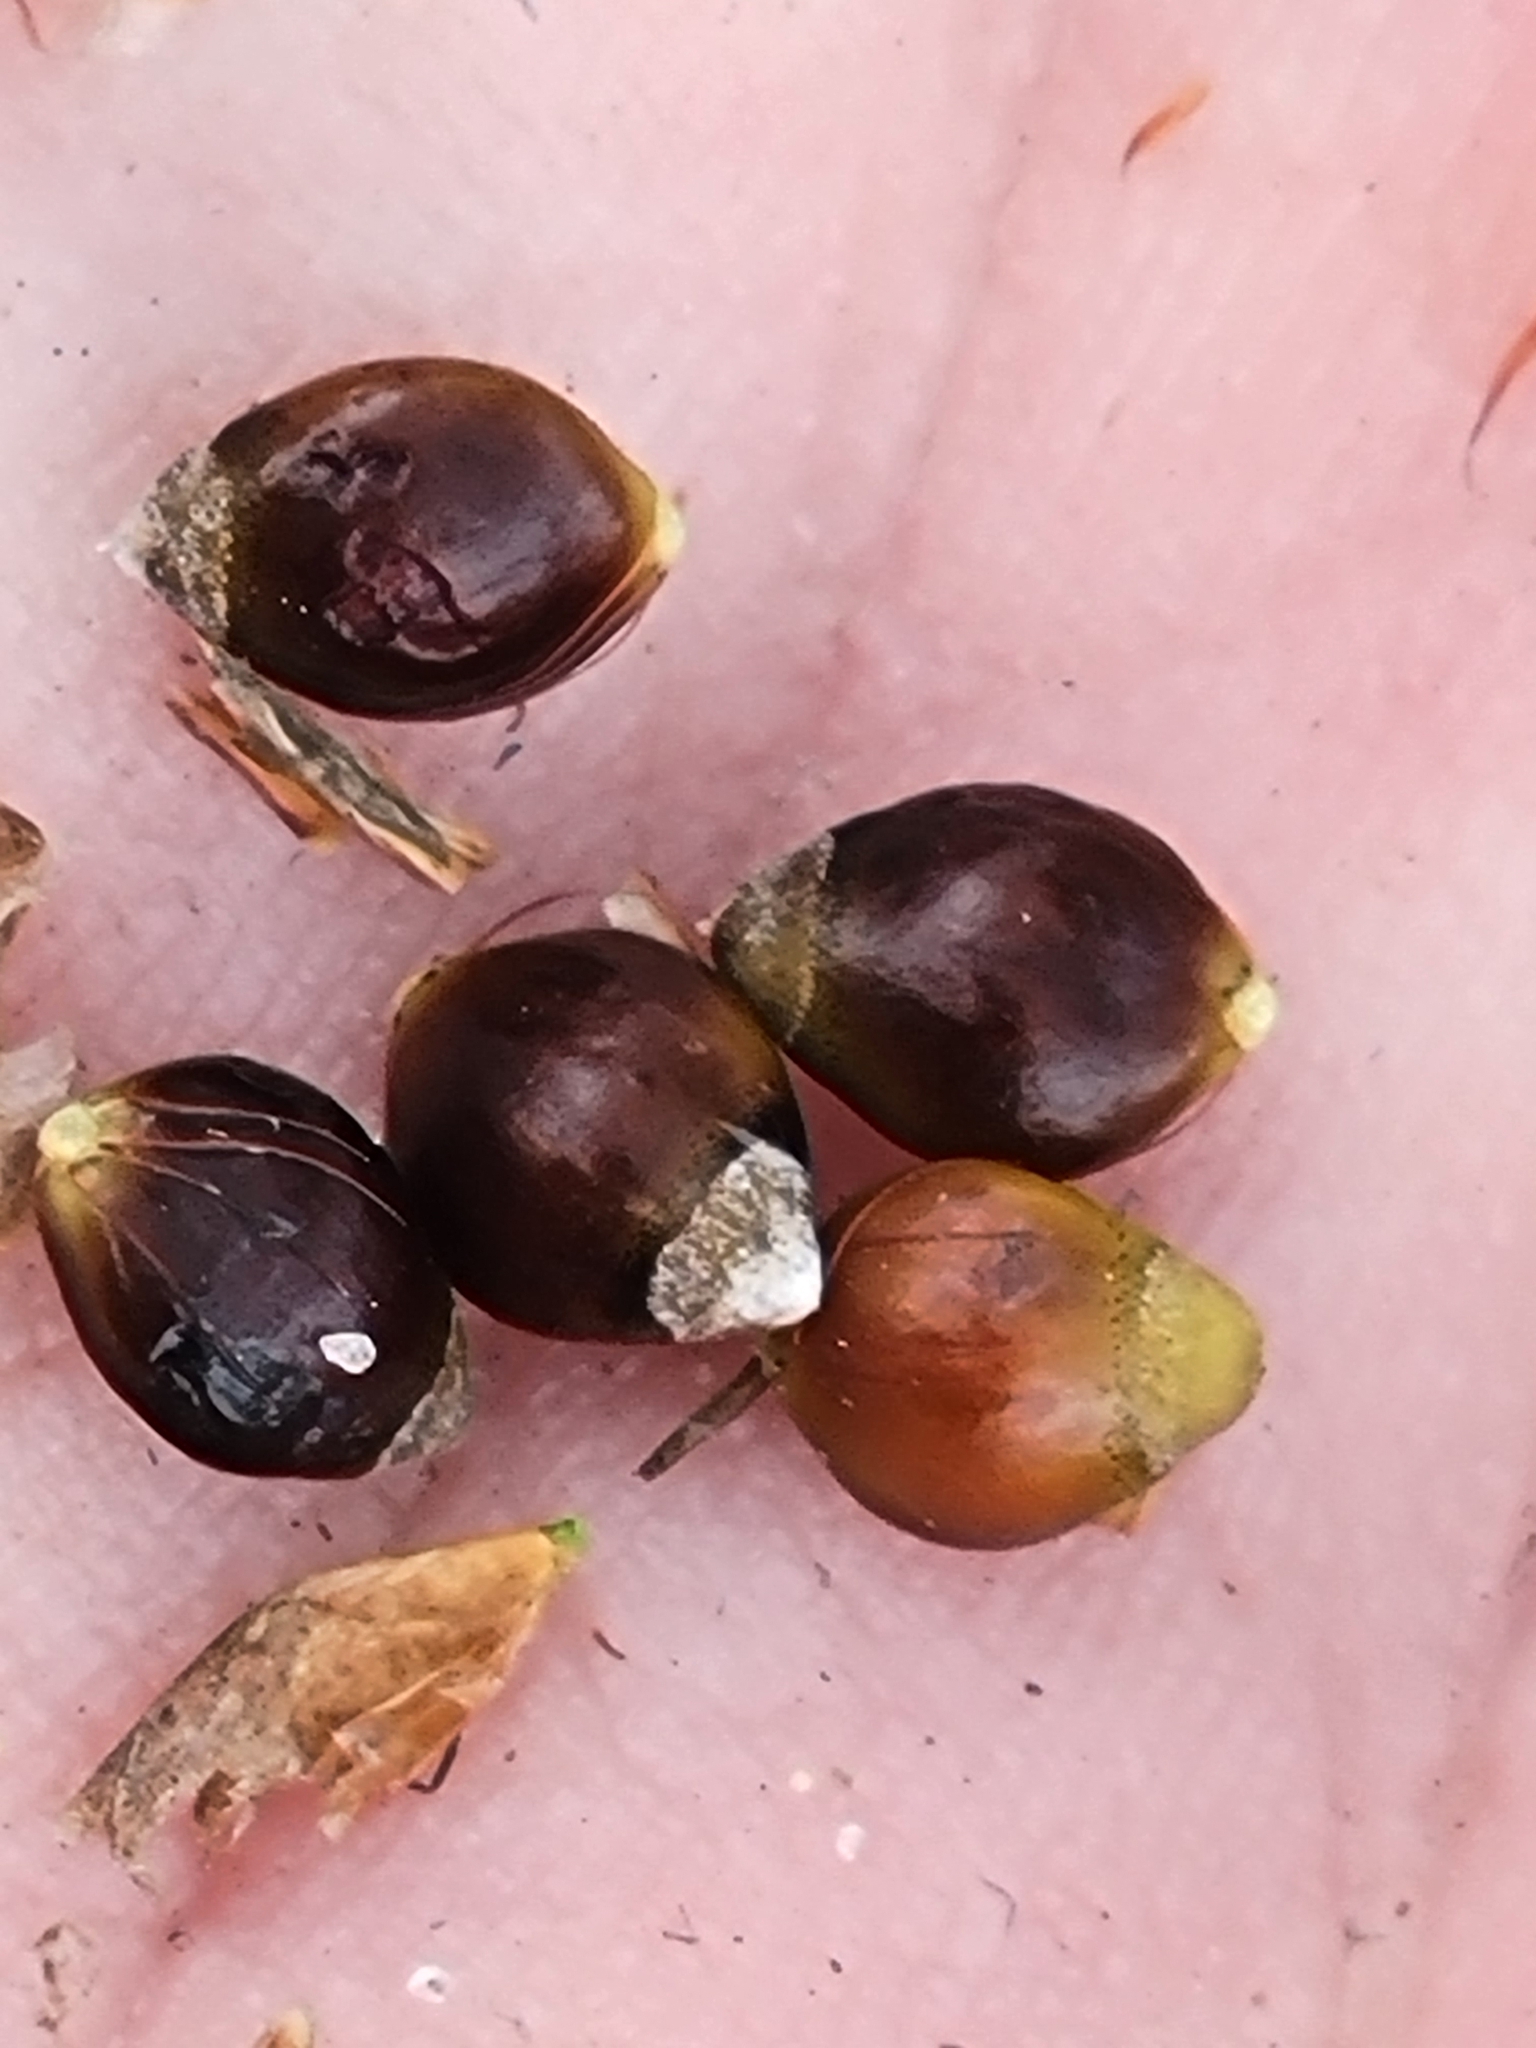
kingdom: Plantae
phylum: Tracheophyta
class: Liliopsida
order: Poales
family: Cyperaceae
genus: Rhynchospora
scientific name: Rhynchospora megalocarpa
